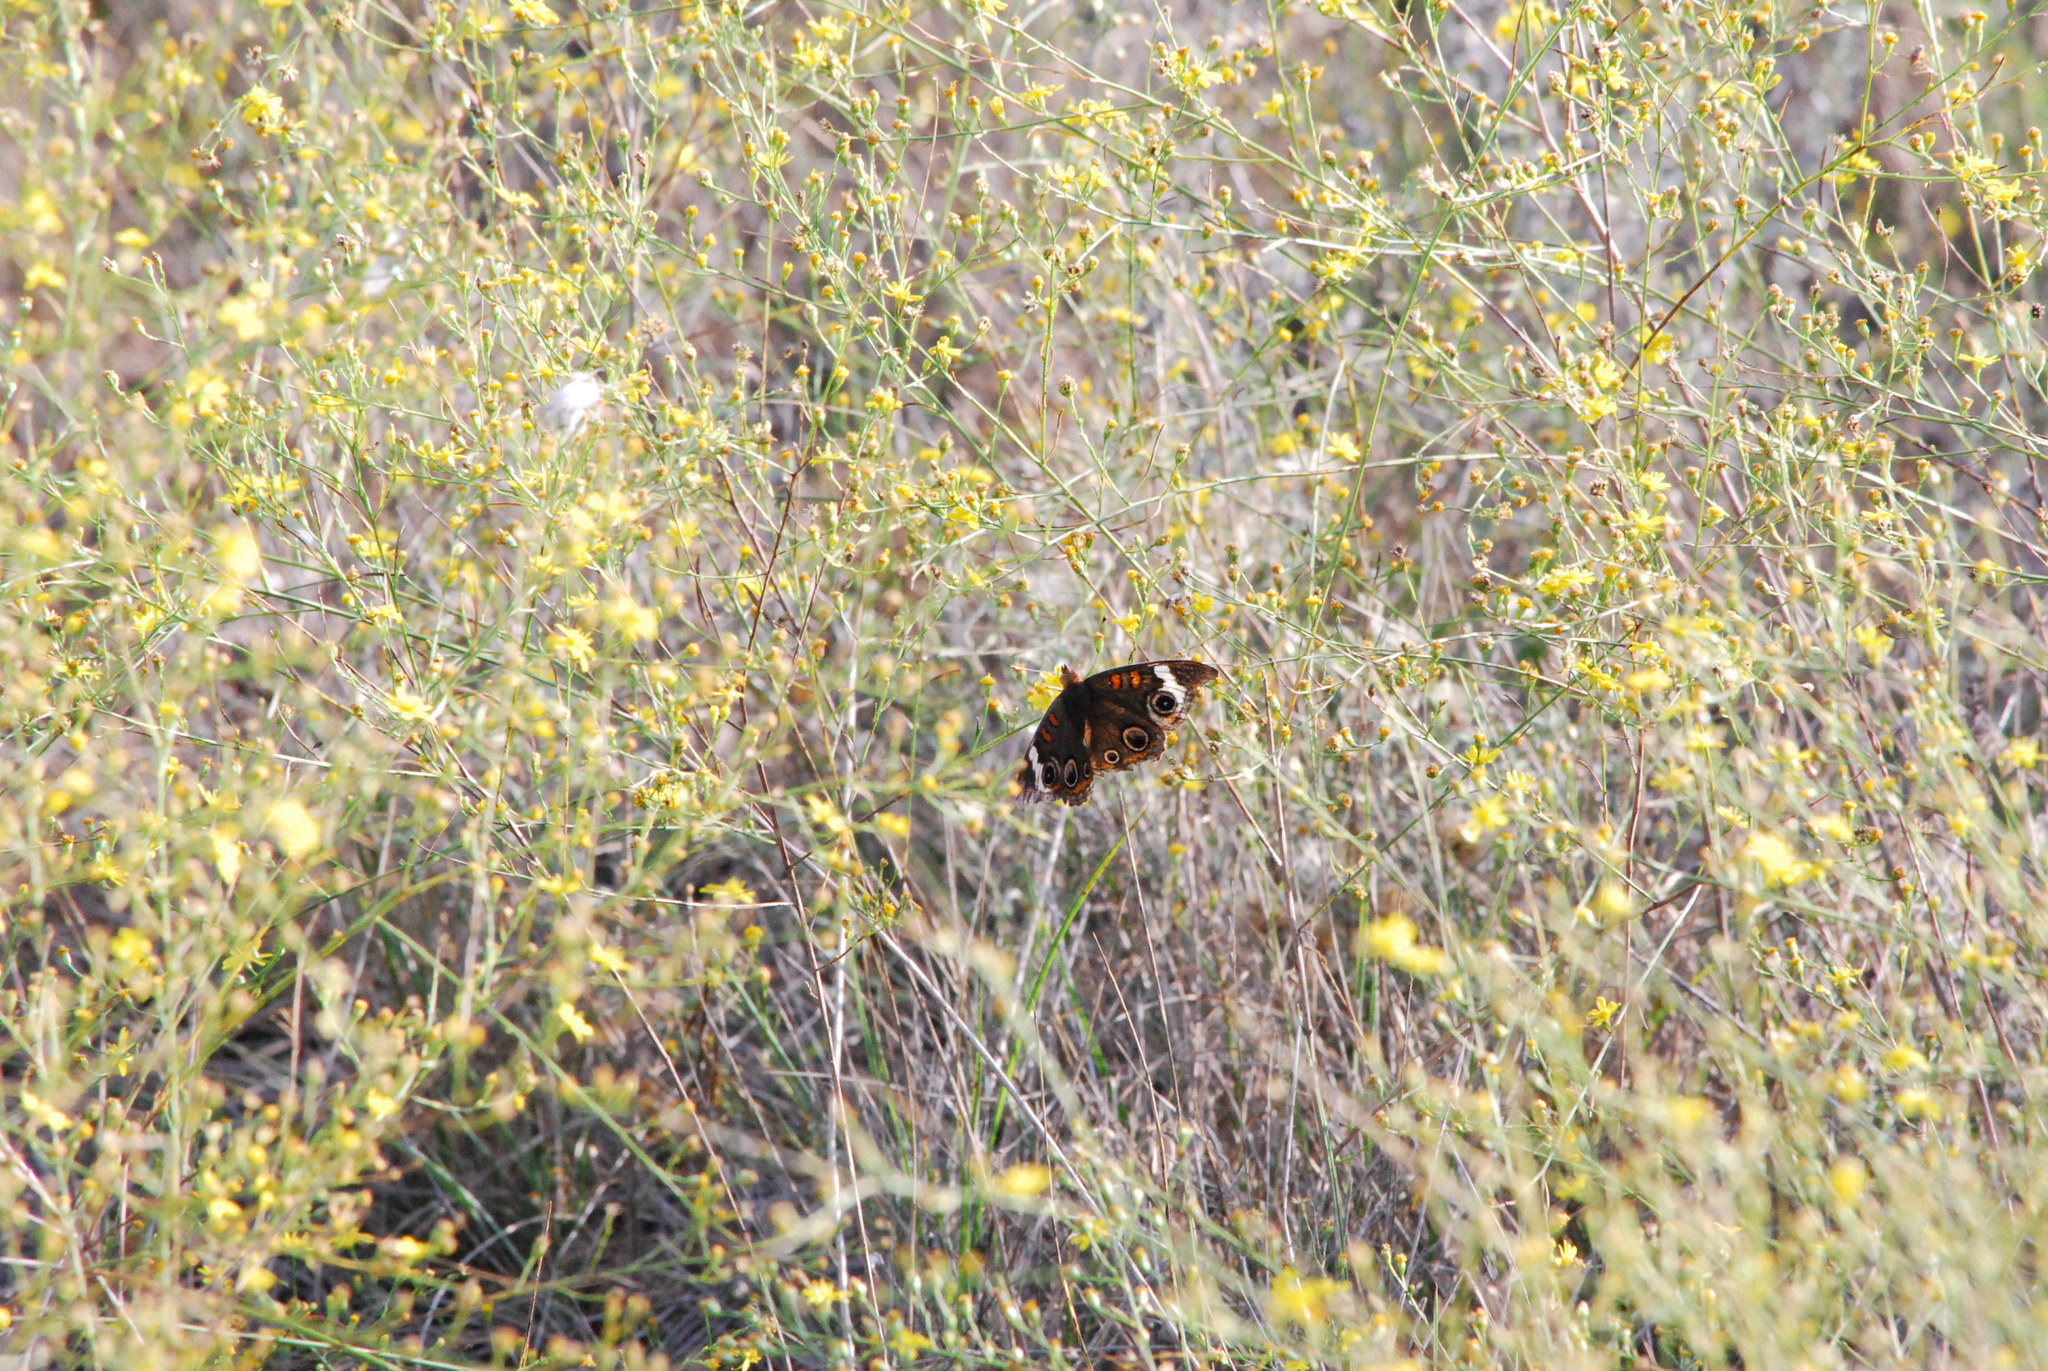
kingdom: Animalia
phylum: Arthropoda
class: Insecta
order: Lepidoptera
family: Nymphalidae
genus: Junonia
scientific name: Junonia coenia
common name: Common buckeye
